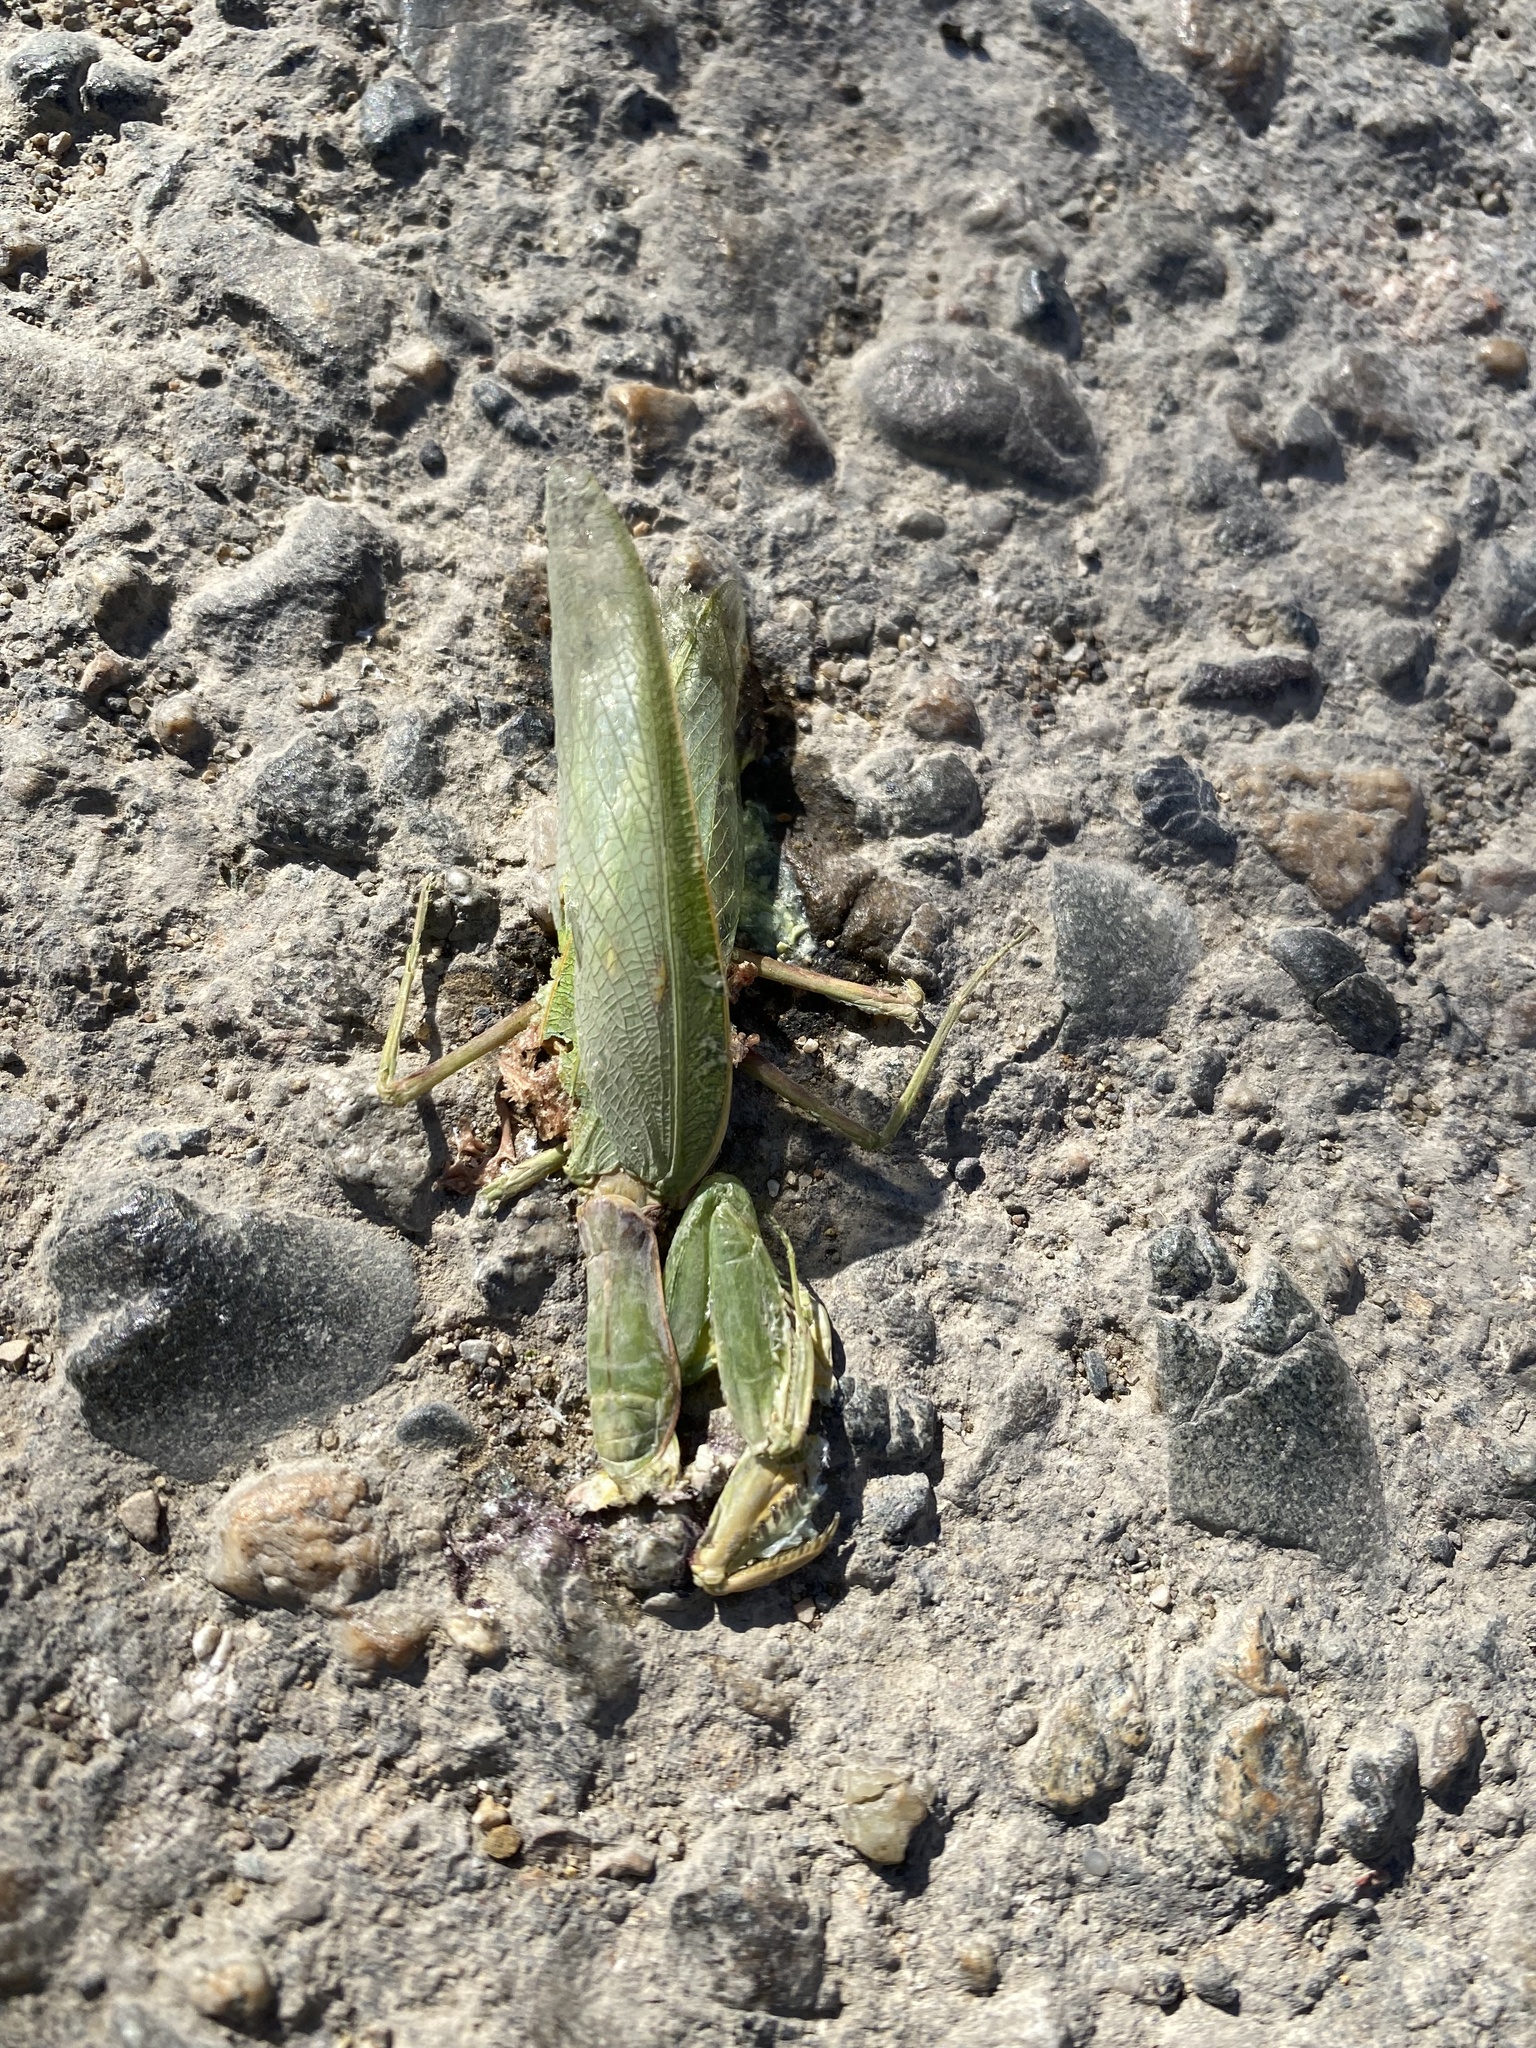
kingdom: Animalia
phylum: Arthropoda
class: Insecta
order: Mantodea
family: Mantidae
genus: Hierodula
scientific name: Hierodula transcaucasica
